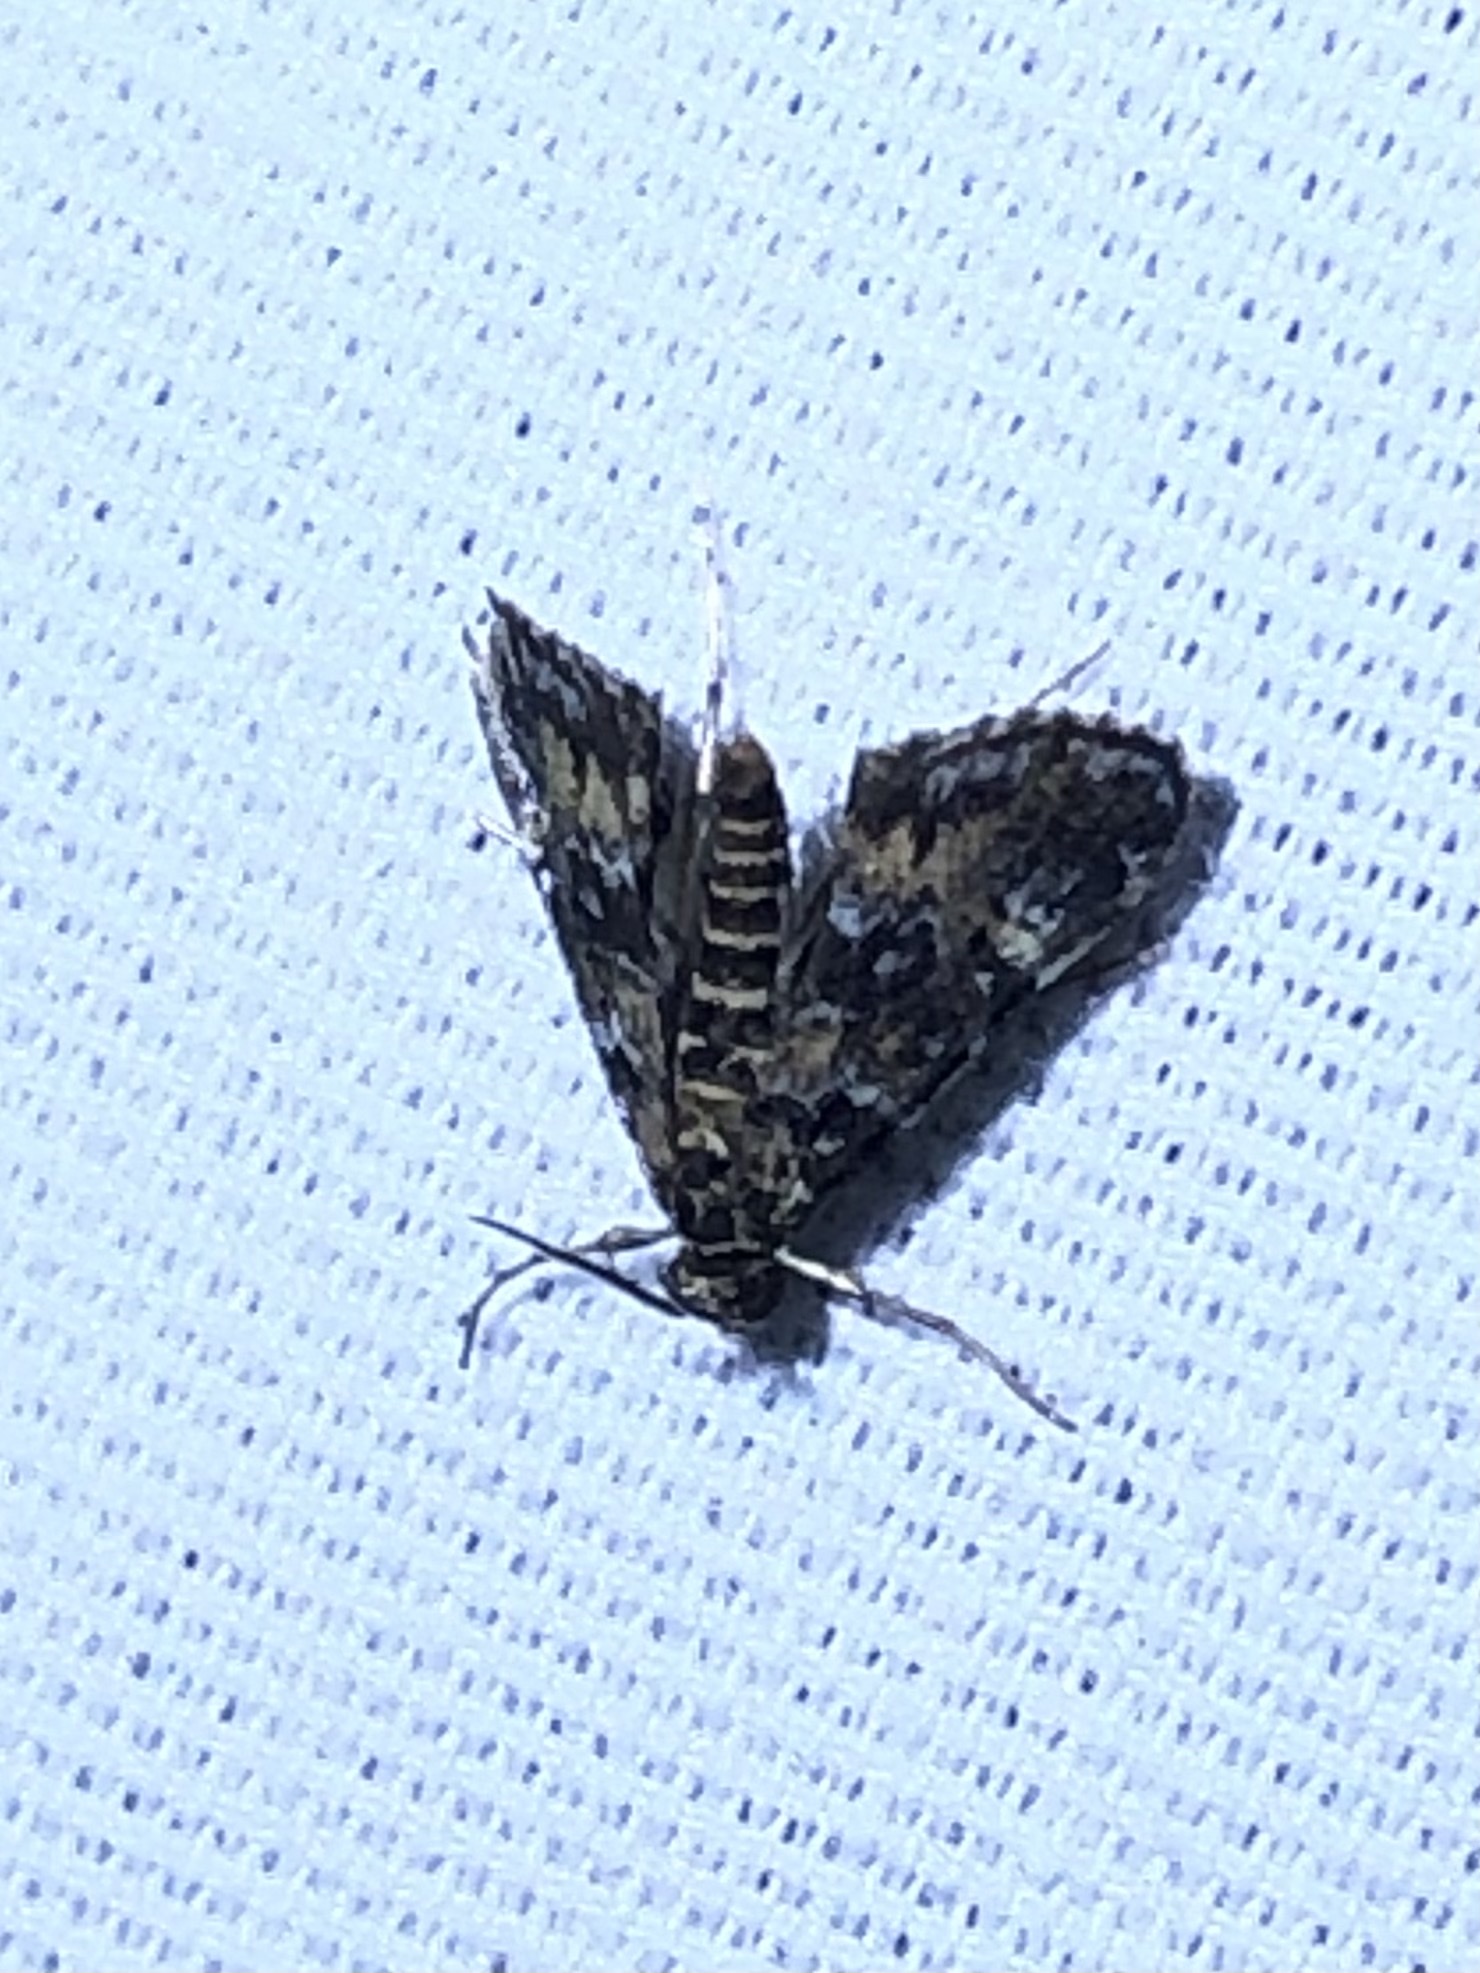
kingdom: Animalia
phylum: Arthropoda
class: Insecta
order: Lepidoptera
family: Crambidae
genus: Elophila
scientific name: Elophila obliteralis
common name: Waterlily leafcutter moth
